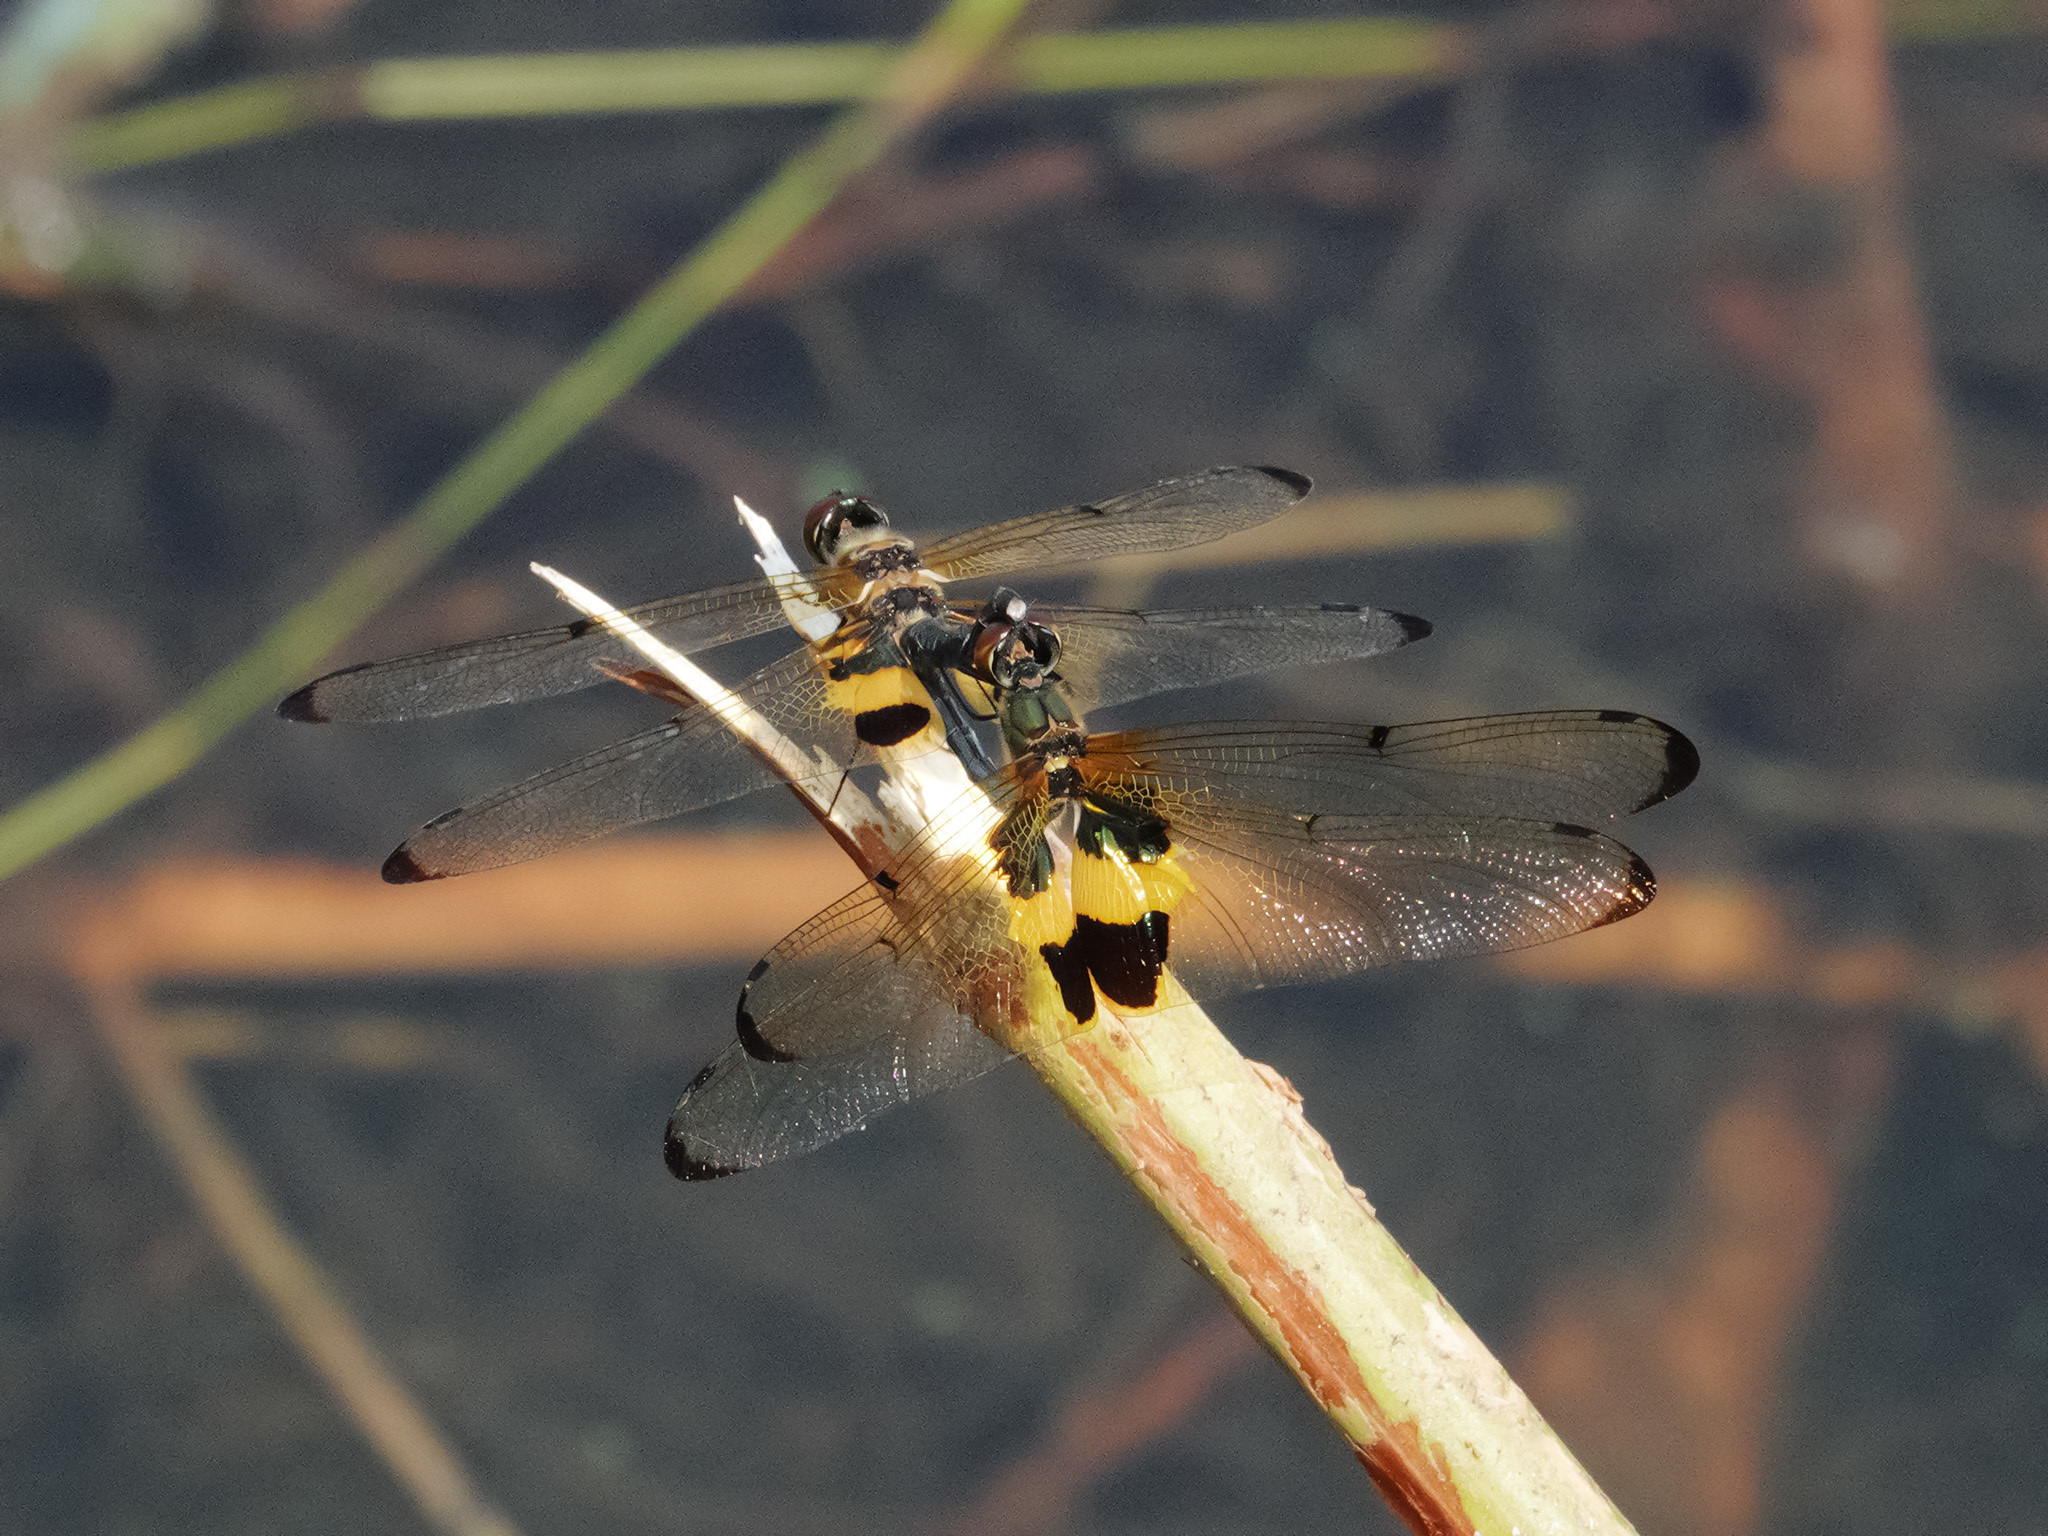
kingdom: Animalia
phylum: Arthropoda
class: Insecta
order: Odonata
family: Libellulidae
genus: Rhyothemis
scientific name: Rhyothemis phyllis
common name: Yellow-barred flutterer
